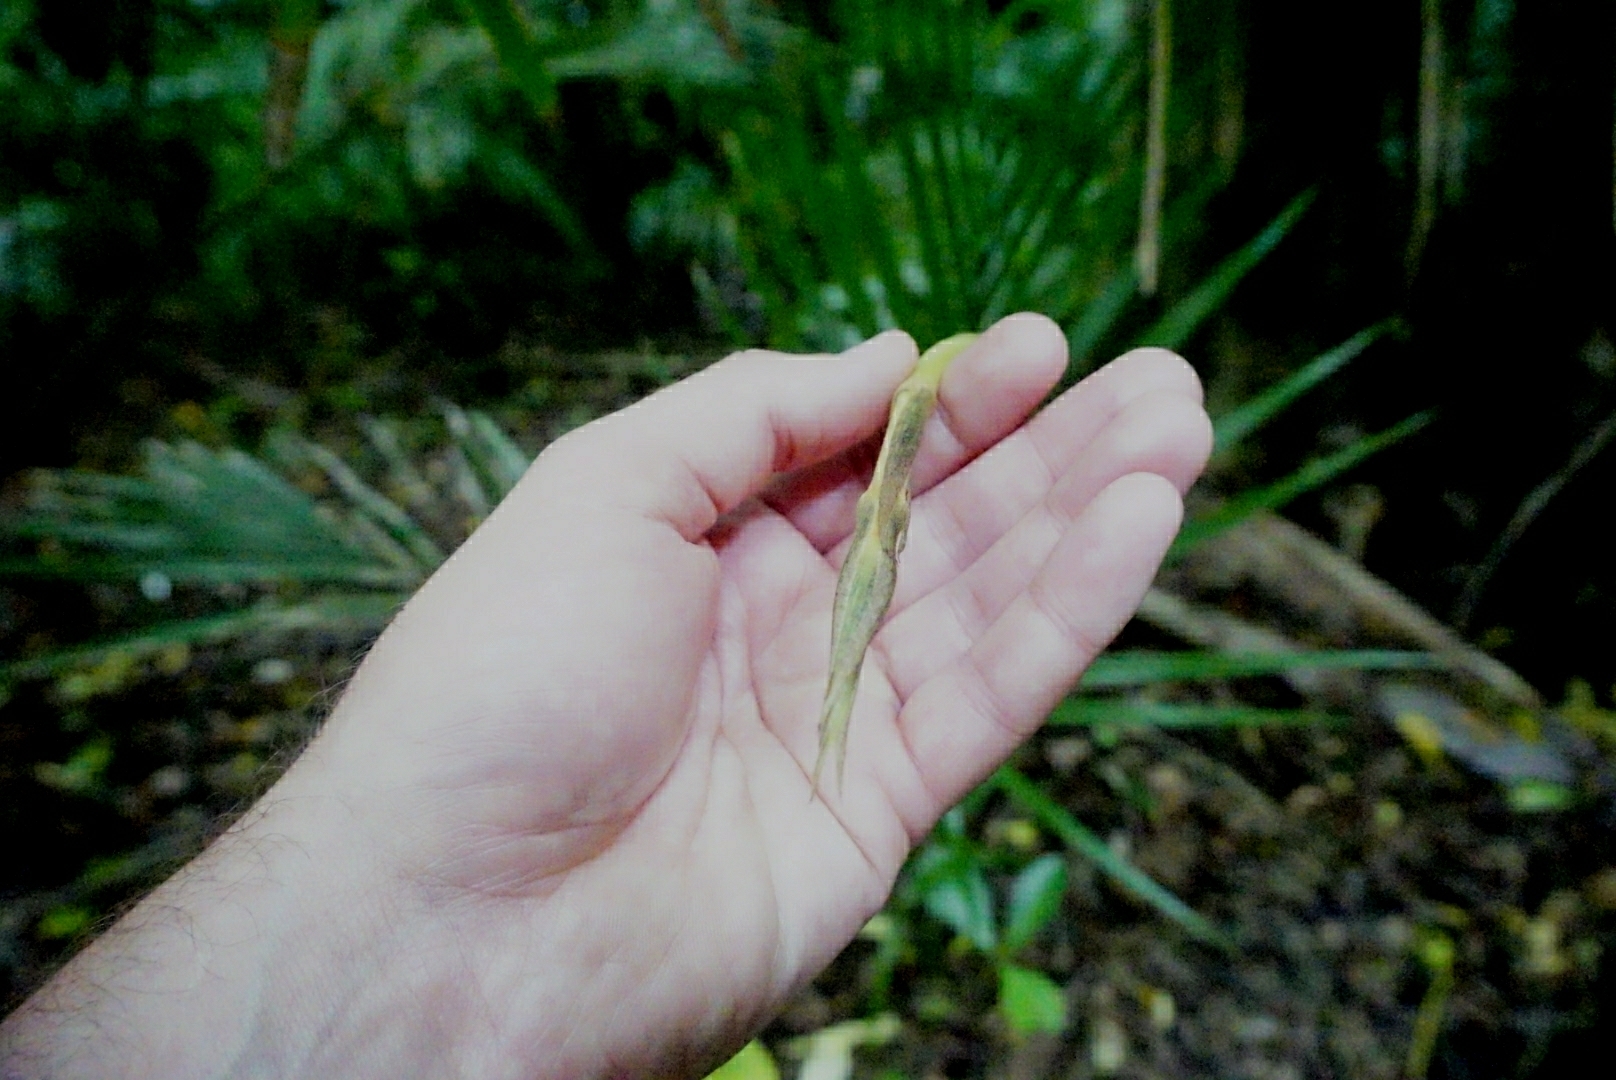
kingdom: Plantae
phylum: Tracheophyta
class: Liliopsida
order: Liliales
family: Ripogonaceae
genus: Ripogonum
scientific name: Ripogonum scandens
